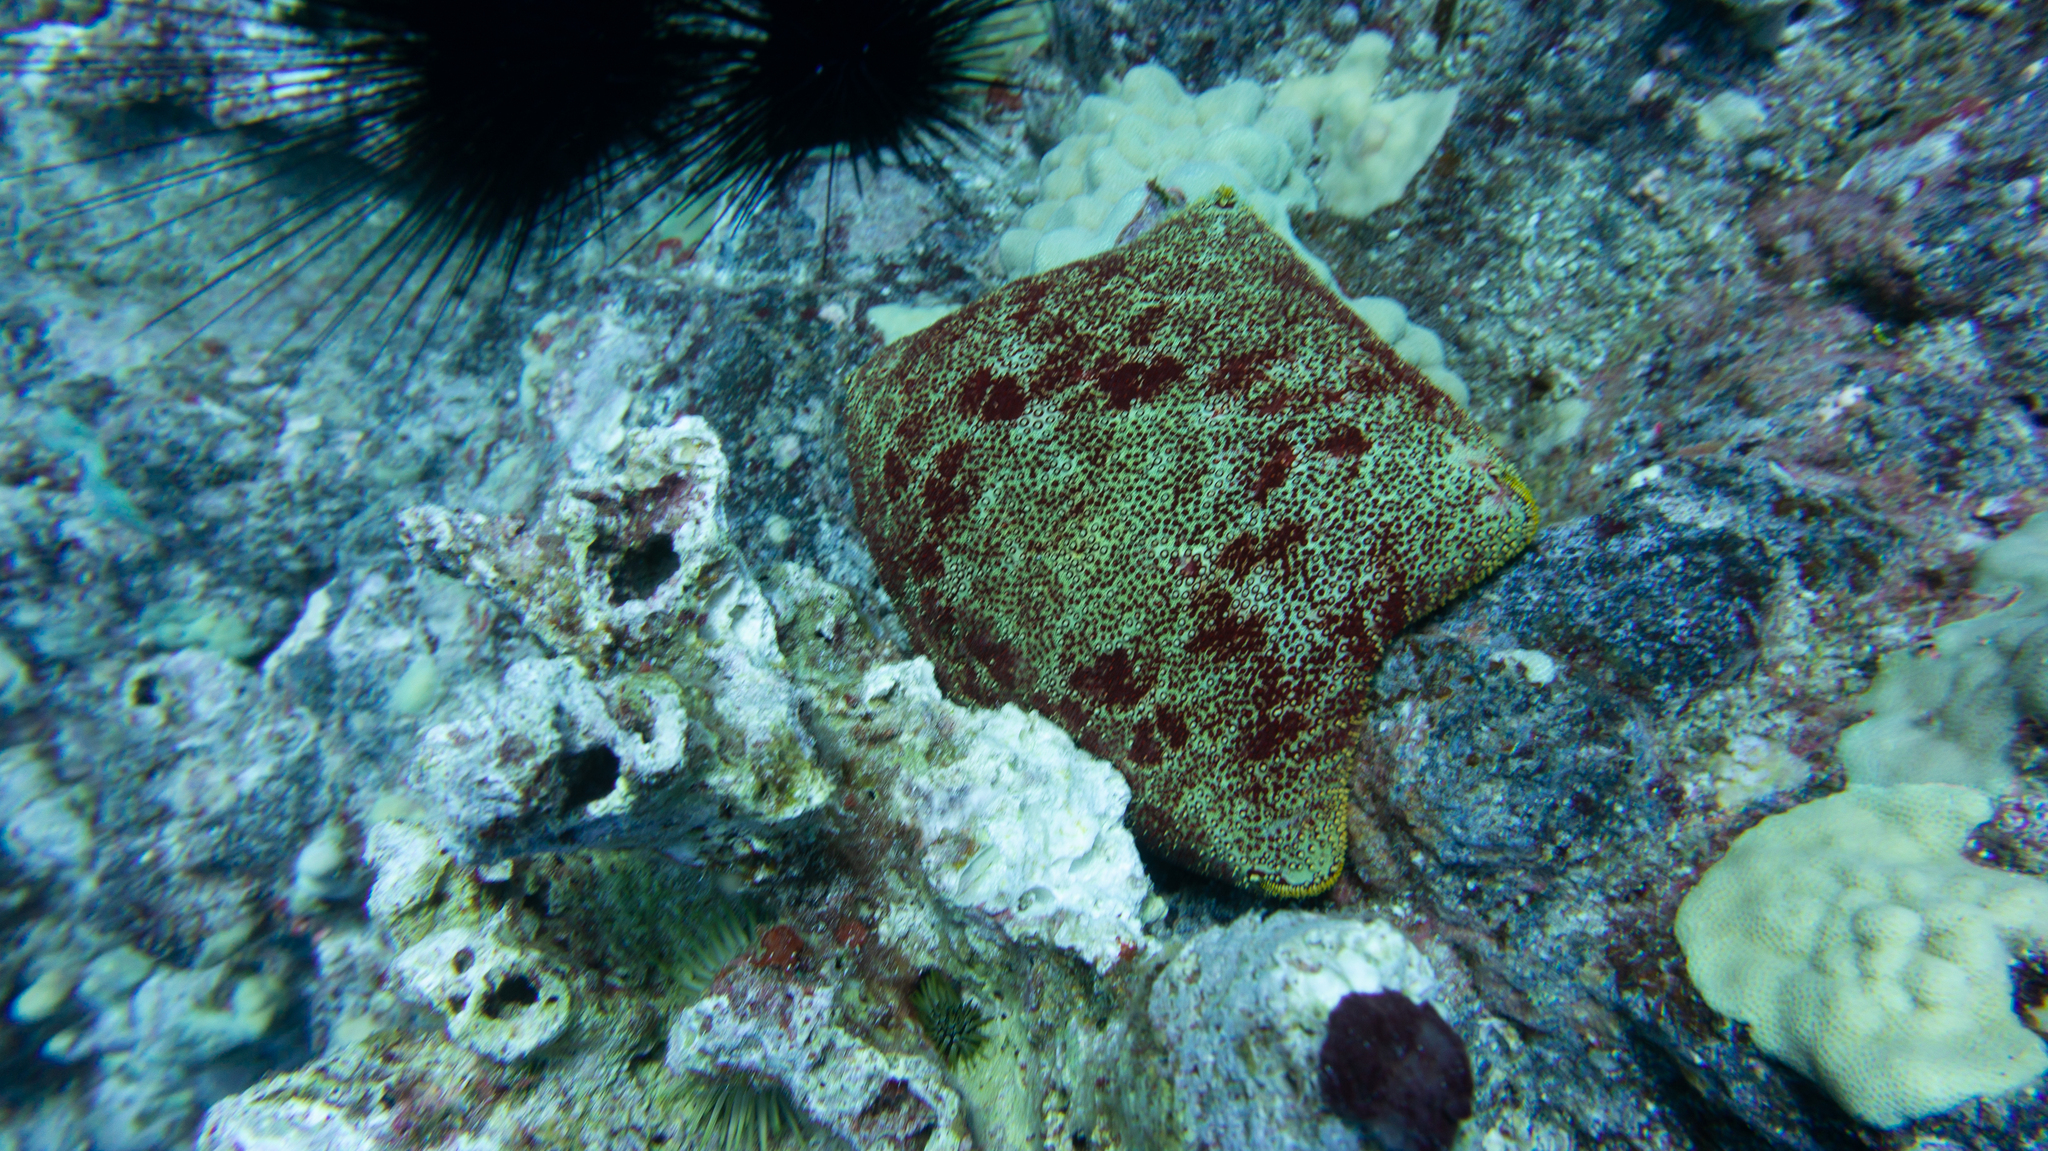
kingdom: Animalia
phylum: Echinodermata
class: Asteroidea
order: Valvatida
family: Oreasteridae
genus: Culcita
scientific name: Culcita novaeguineae
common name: Cushion star
